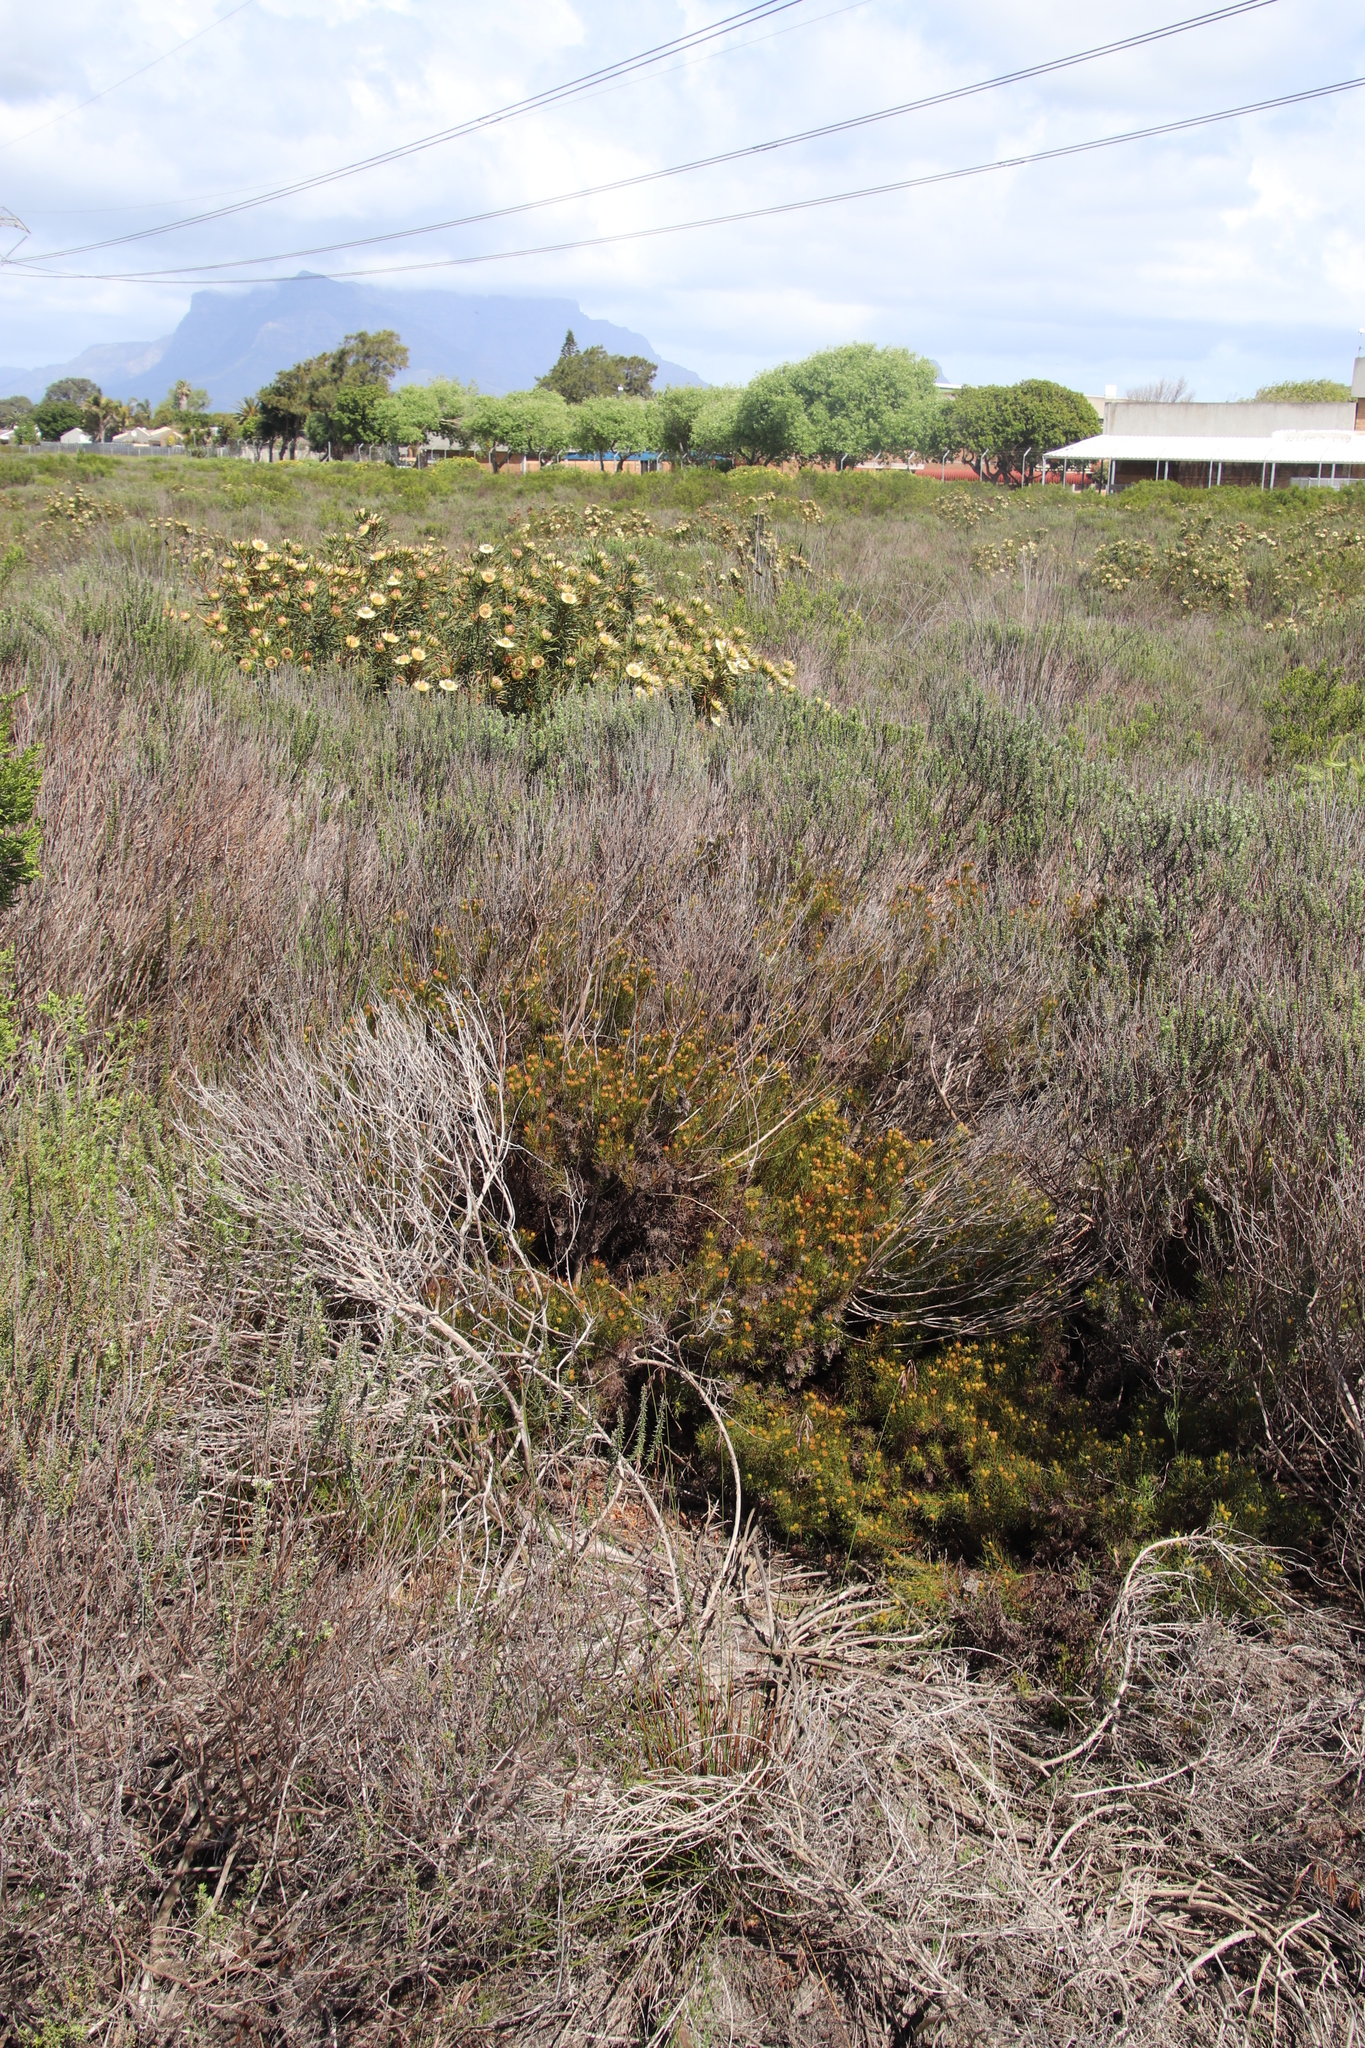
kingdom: Plantae
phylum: Tracheophyta
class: Magnoliopsida
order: Proteales
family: Proteaceae
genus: Protea
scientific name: Protea scolymocephala
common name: Thistle sugarbush
